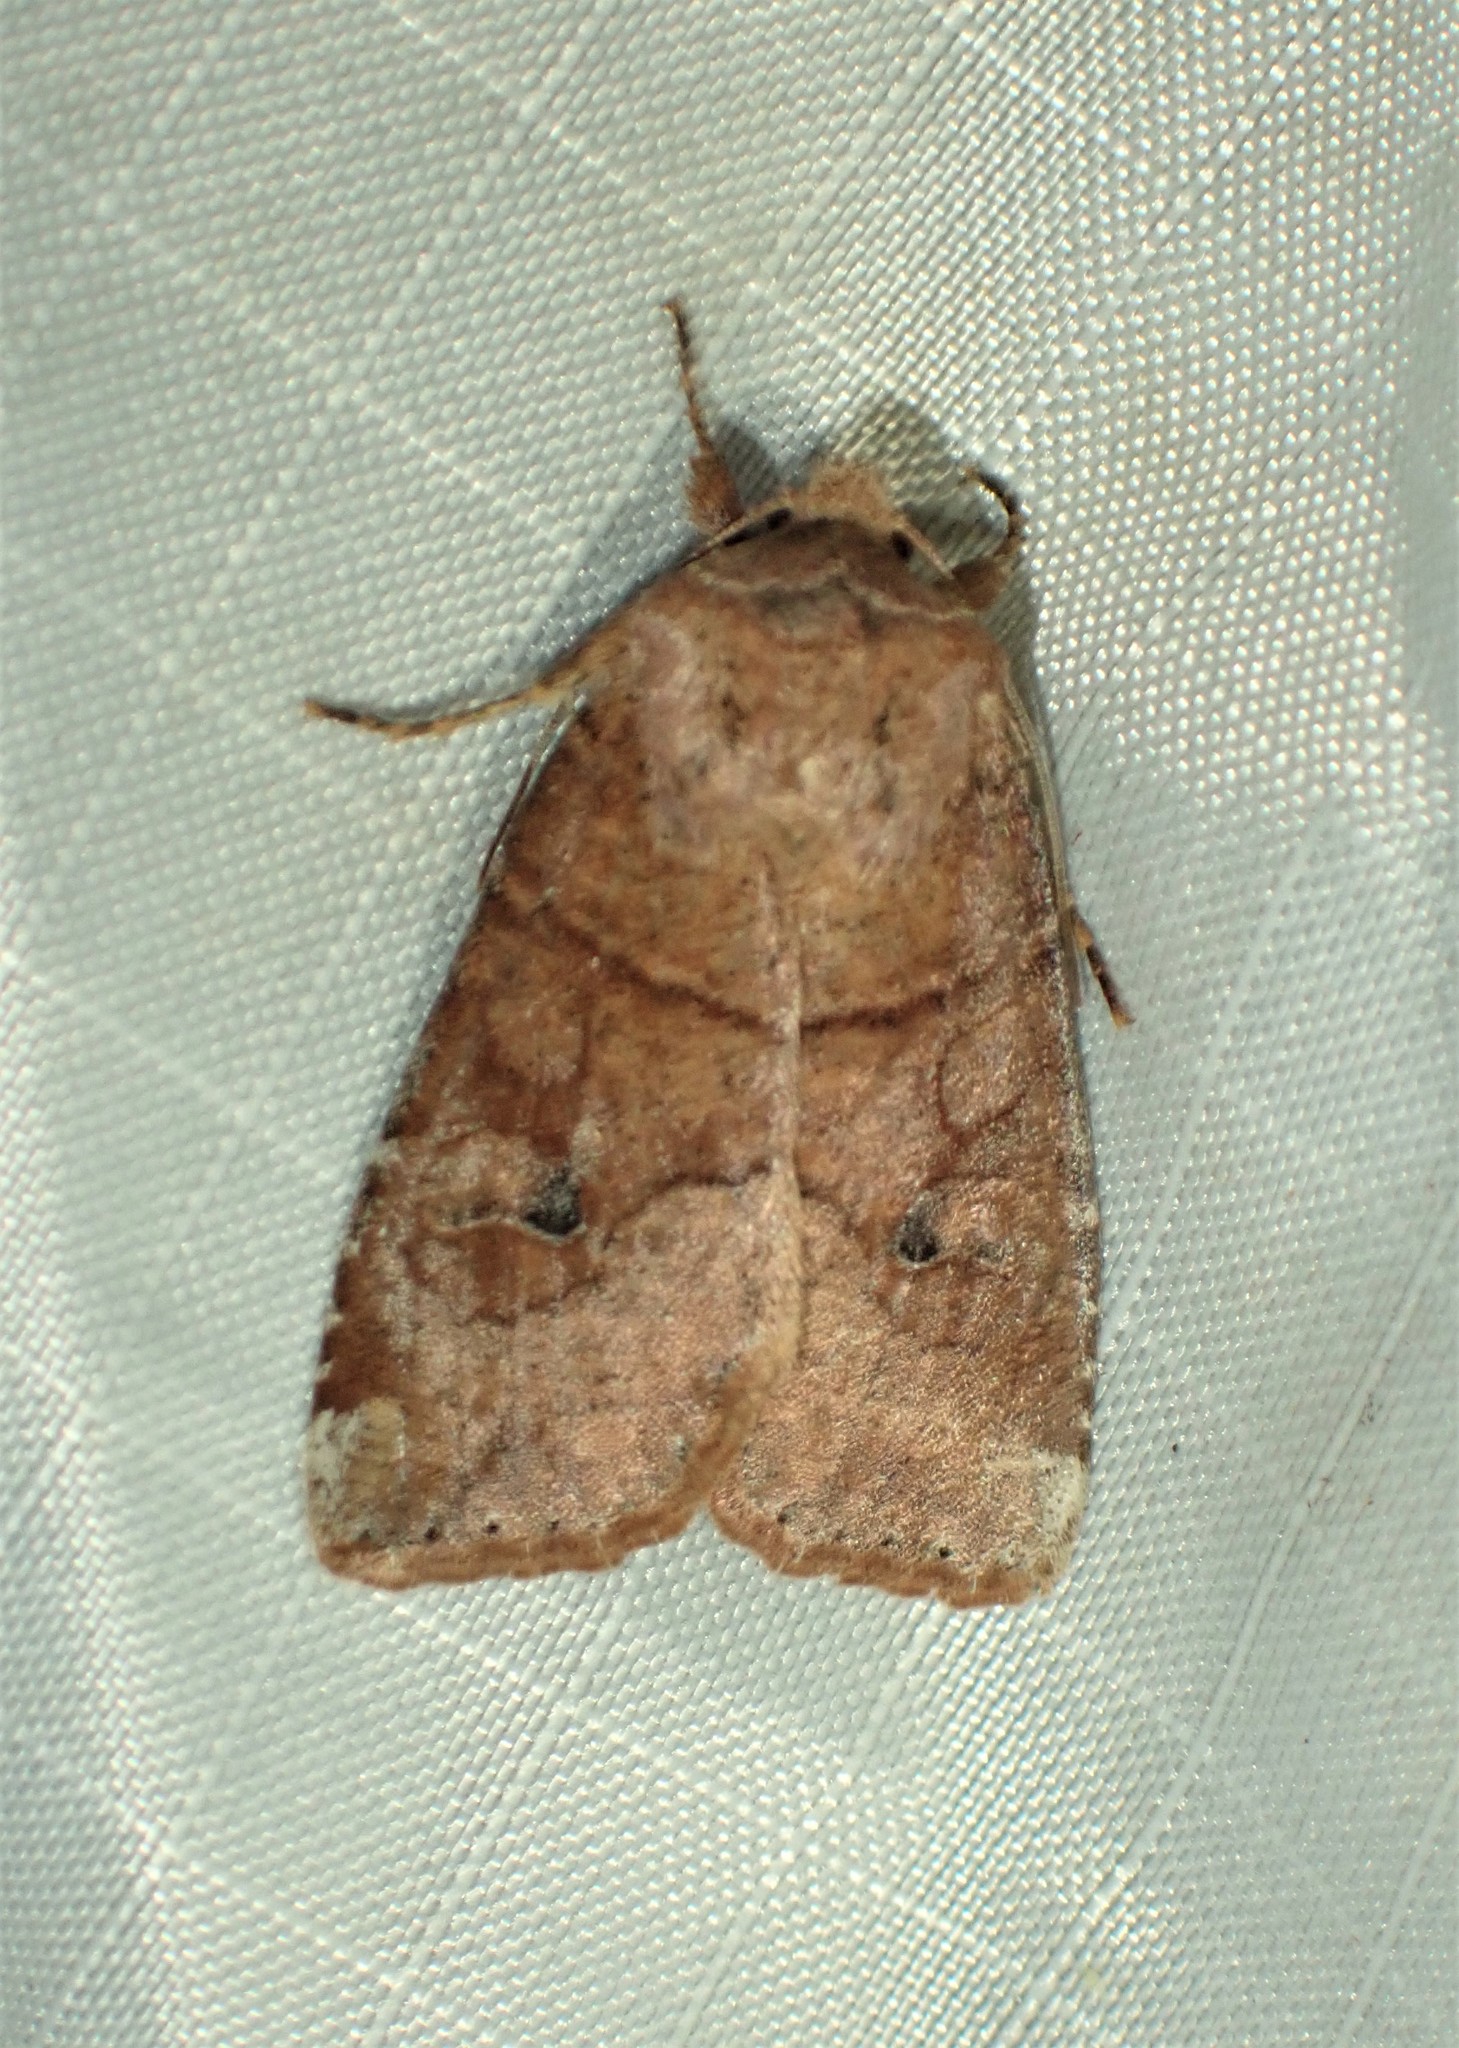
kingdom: Animalia
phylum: Arthropoda
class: Insecta
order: Lepidoptera
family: Noctuidae
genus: Crocigrapha
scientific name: Crocigrapha normani
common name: Norman's quaker
